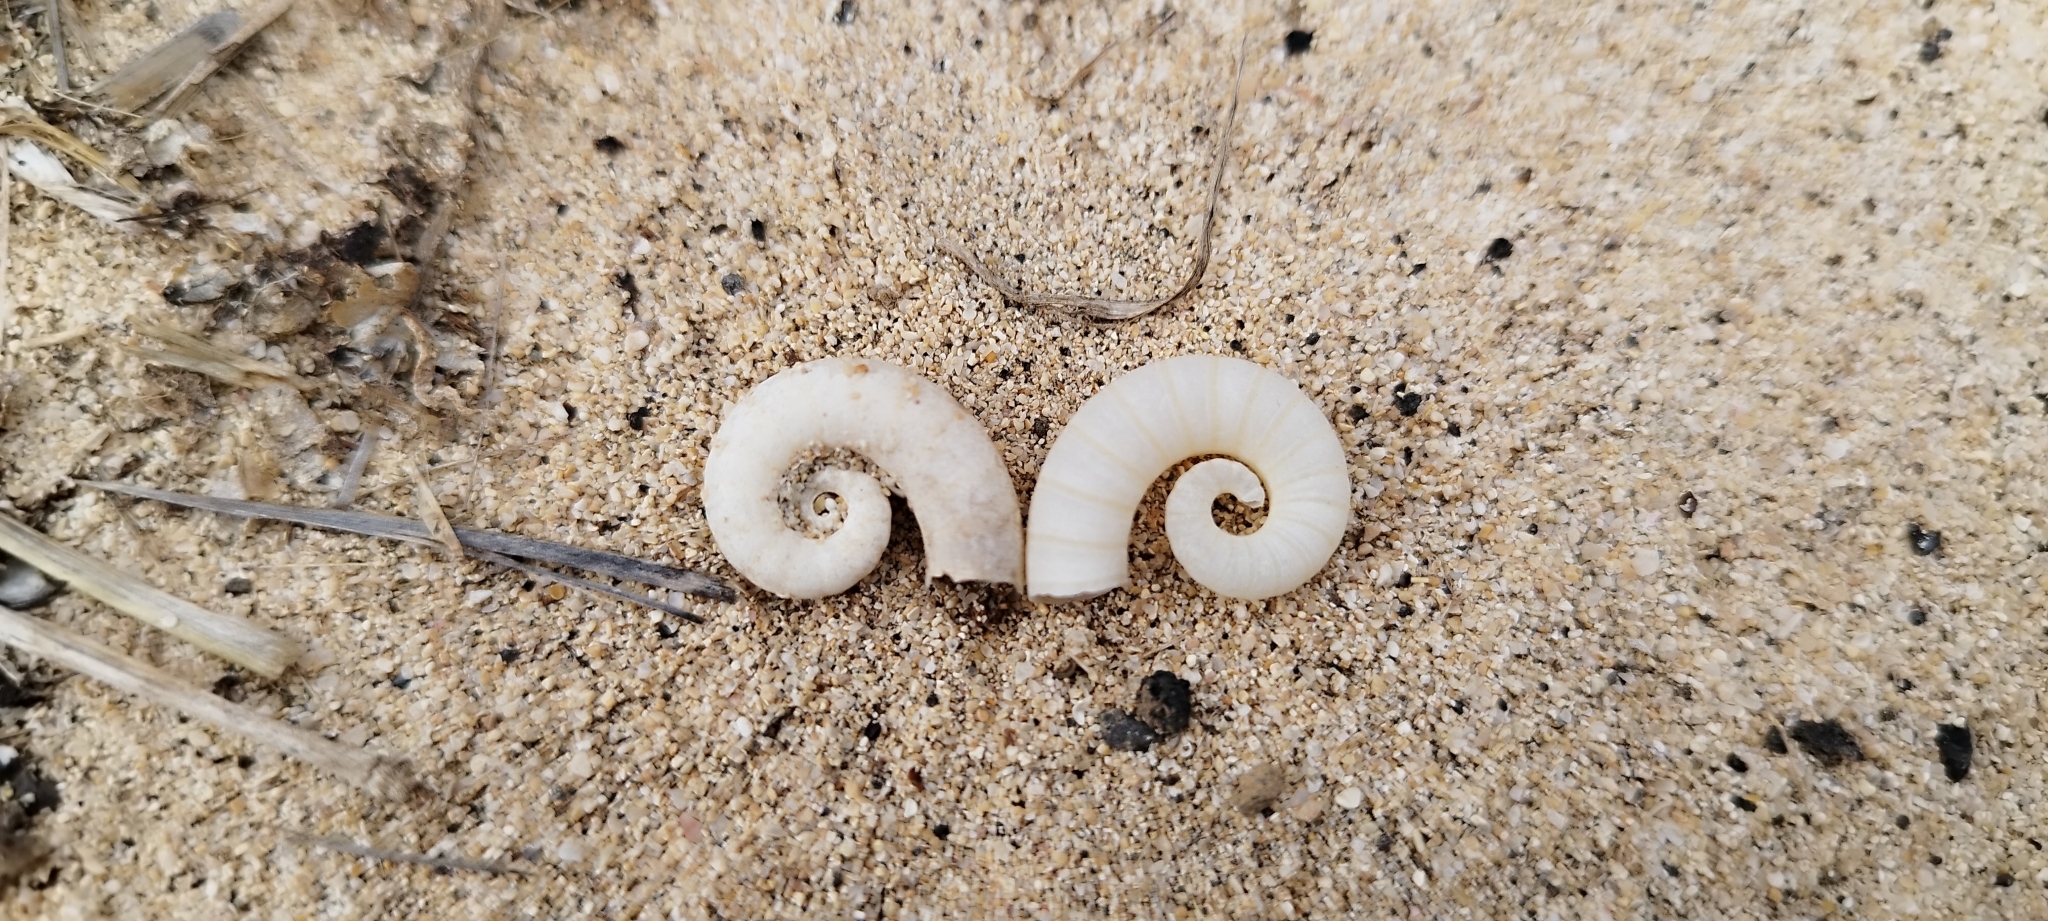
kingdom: Animalia
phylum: Mollusca
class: Cephalopoda
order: Spirulida
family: Spirulidae
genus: Spirula
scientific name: Spirula spirula
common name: Ram's horn squid
